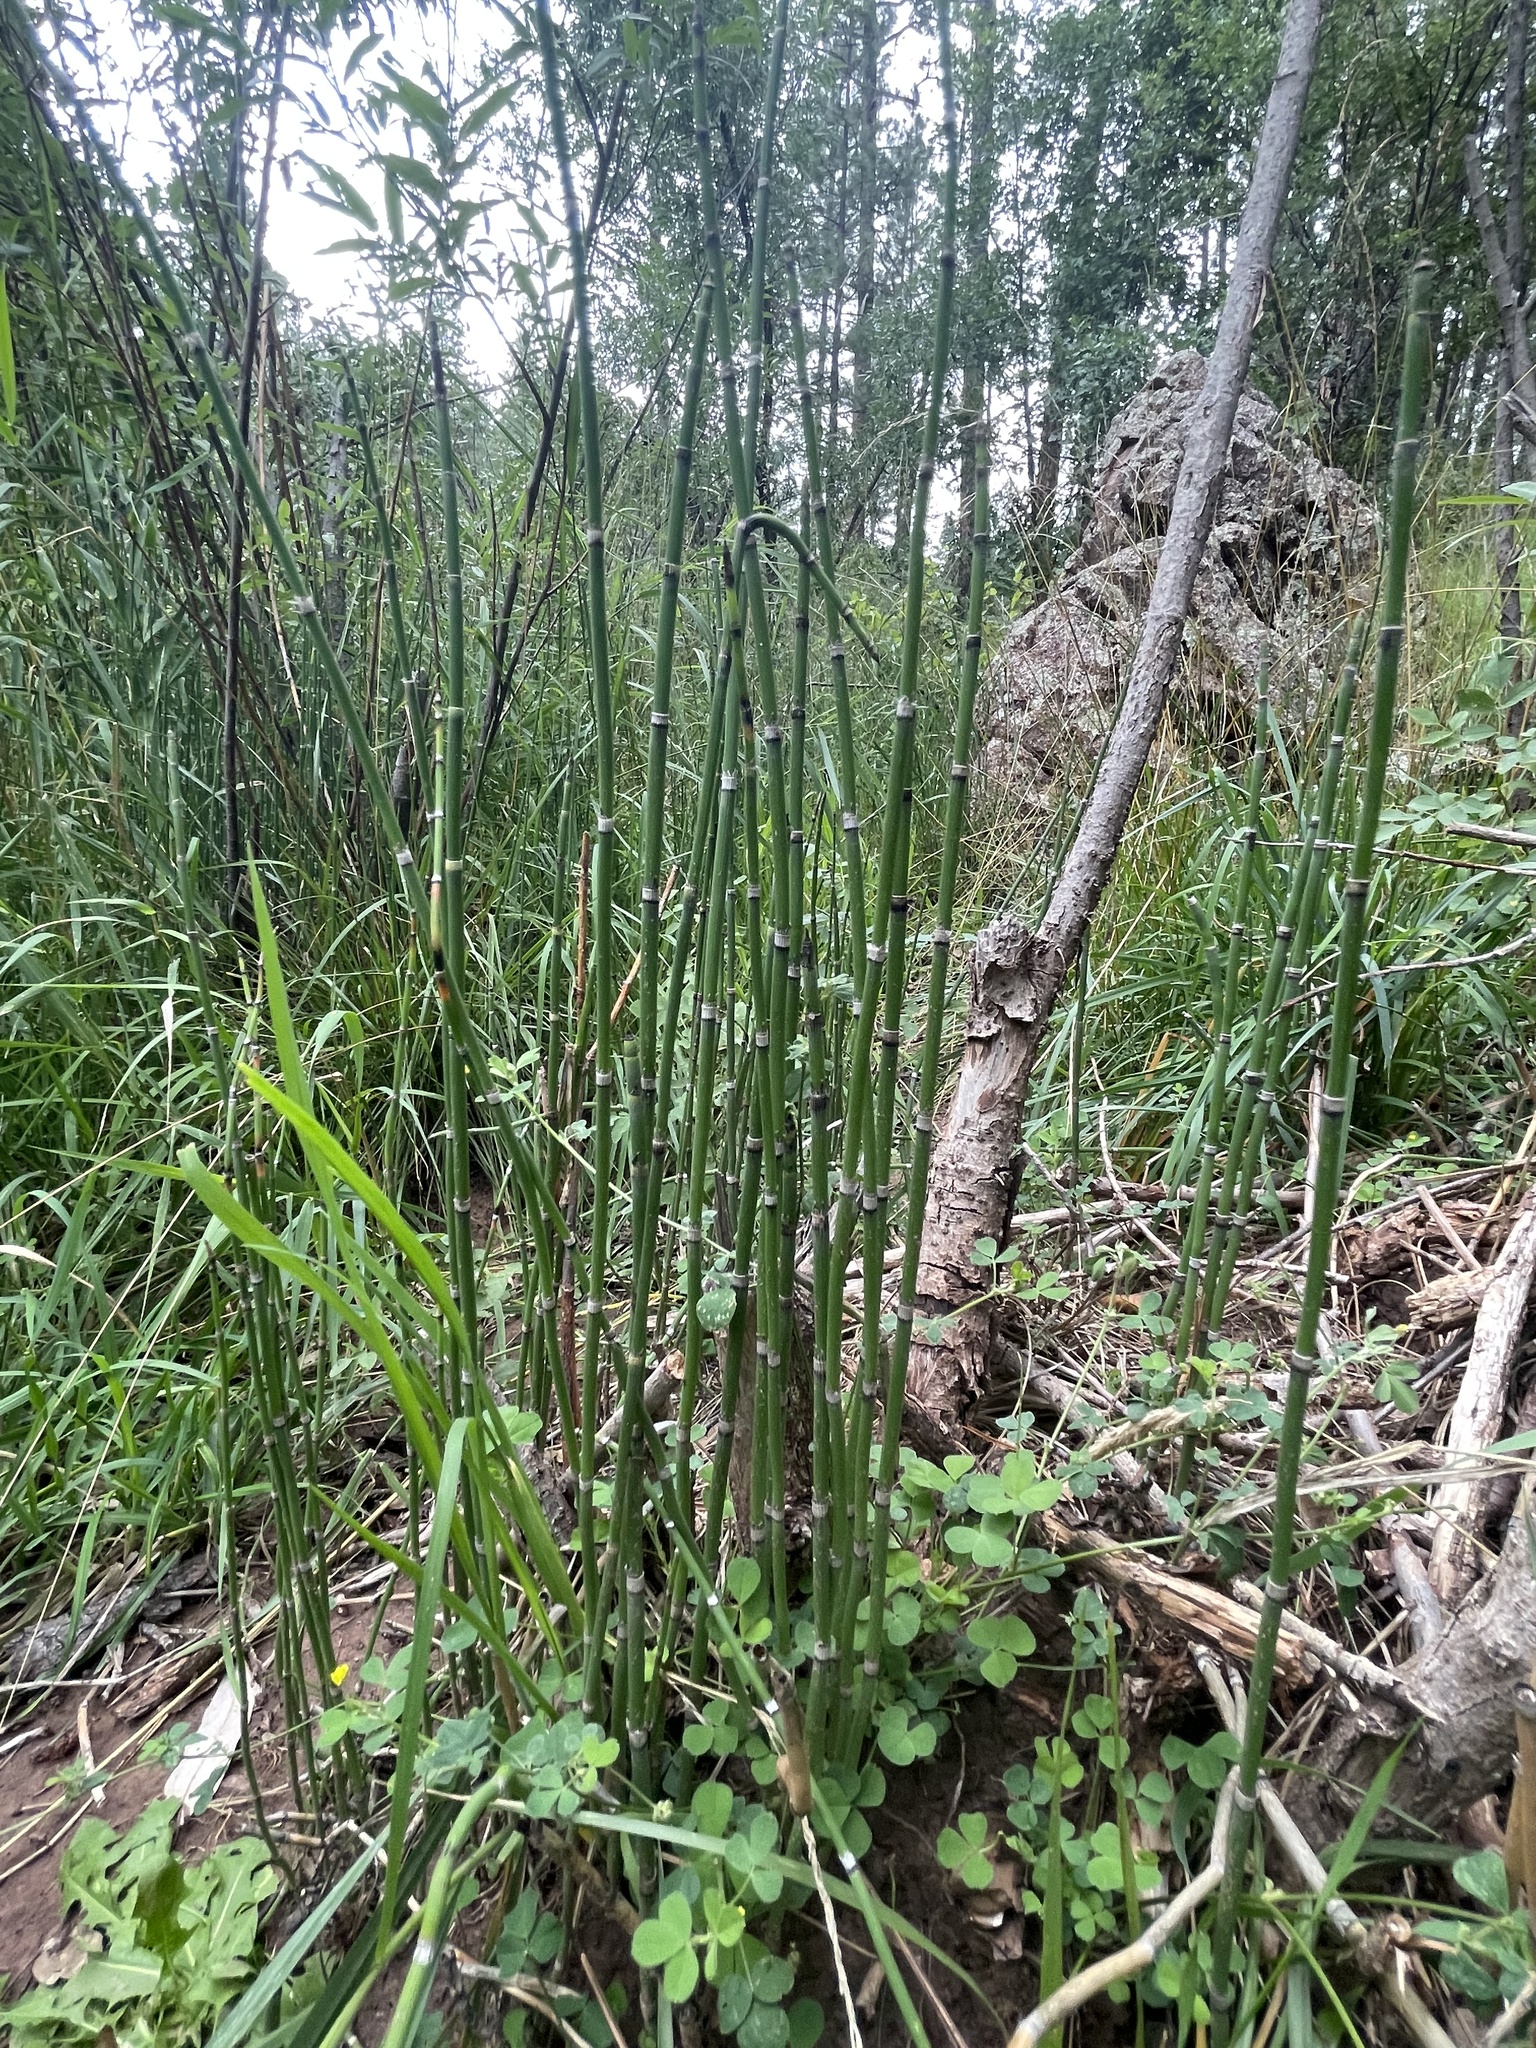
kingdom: Plantae
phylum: Tracheophyta
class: Polypodiopsida
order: Equisetales
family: Equisetaceae
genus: Equisetum
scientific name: Equisetum hyemale
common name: Rough horsetail
